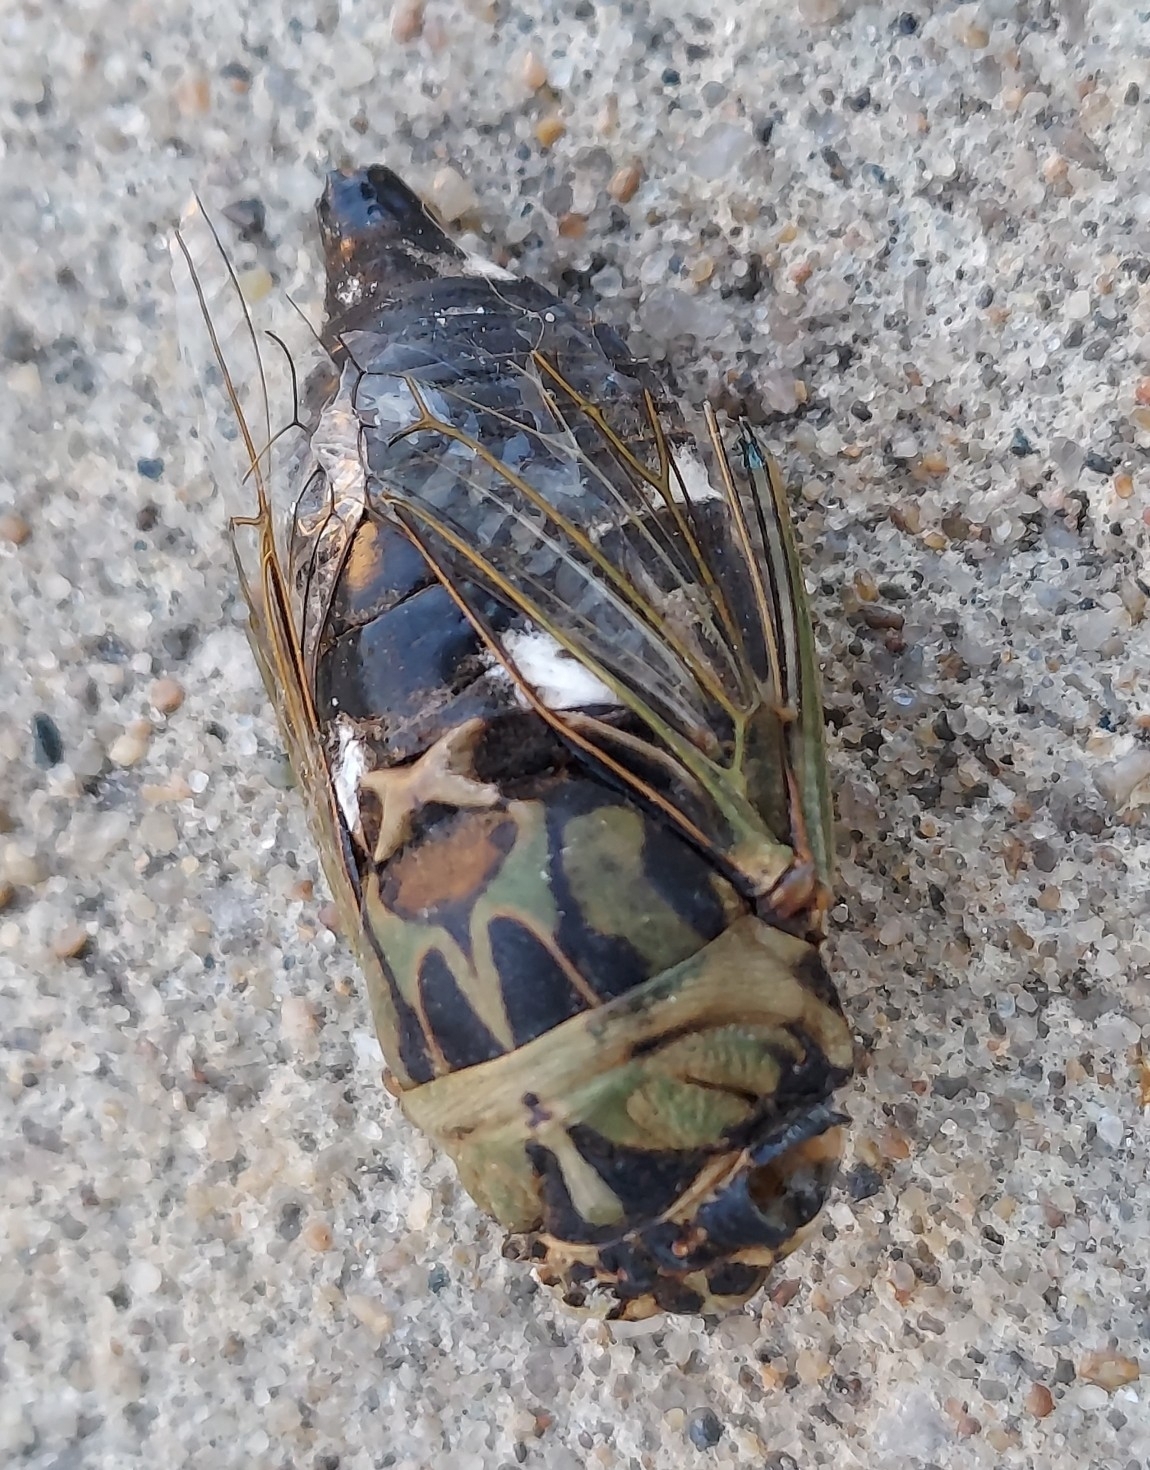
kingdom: Animalia
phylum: Arthropoda
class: Insecta
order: Hemiptera
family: Cicadidae
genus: Neotibicen
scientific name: Neotibicen pruinosus
